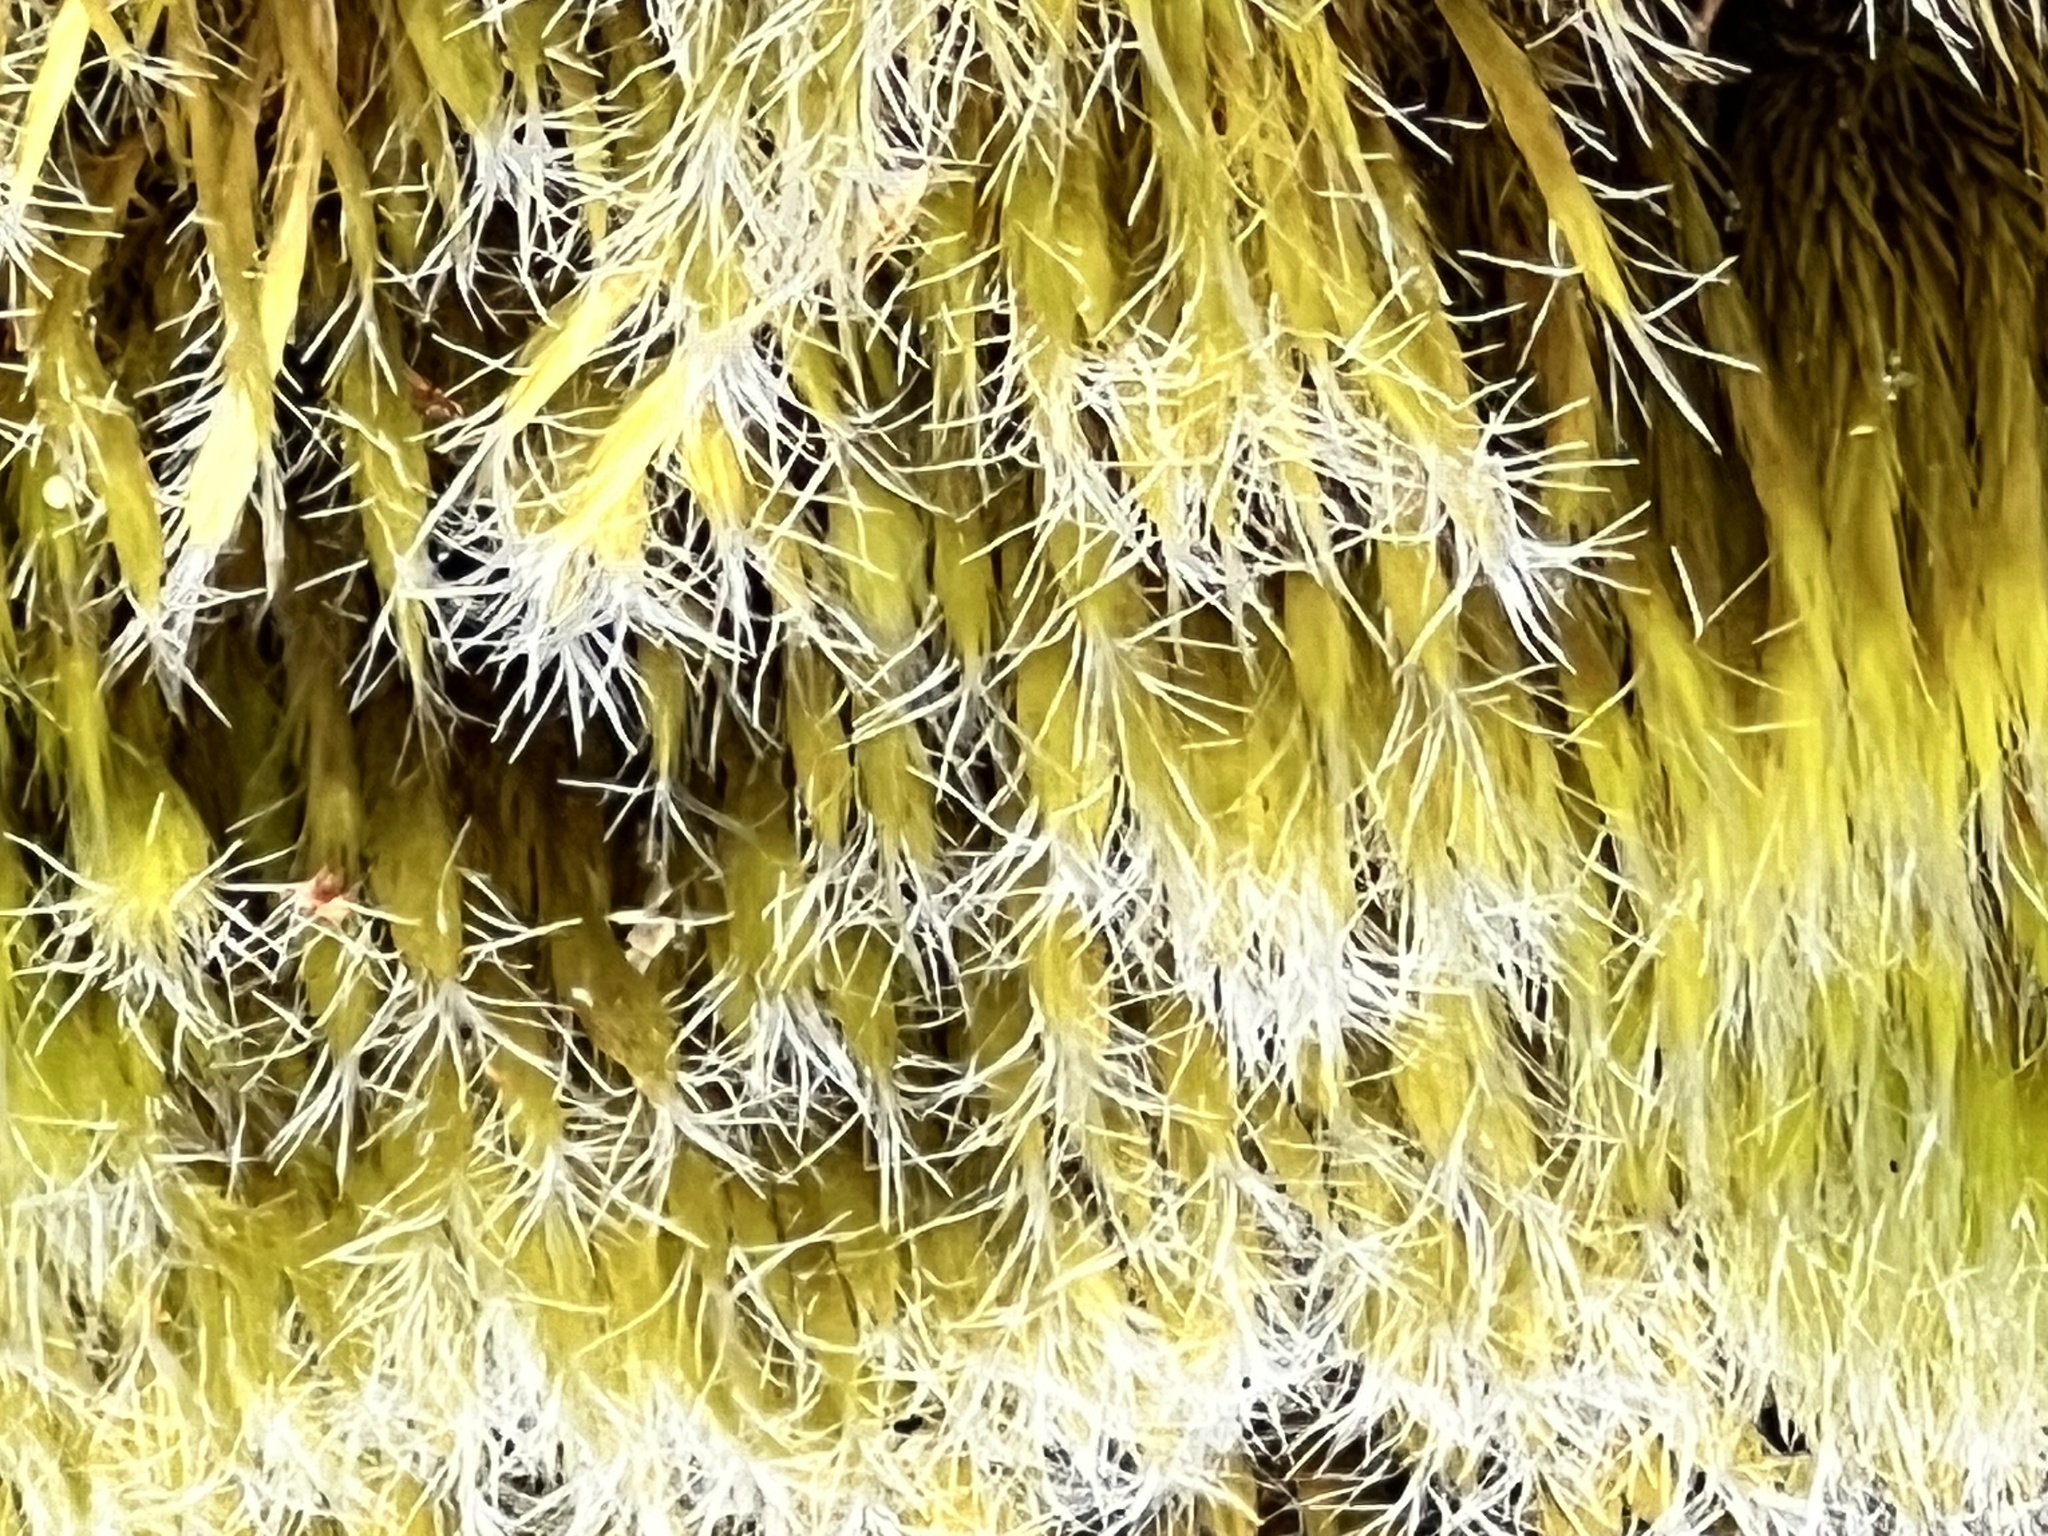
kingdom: Plantae
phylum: Bryophyta
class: Bryopsida
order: Dicranales
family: Leucobryaceae
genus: Campylopus
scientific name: Campylopus introflexus
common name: Heath star moss
